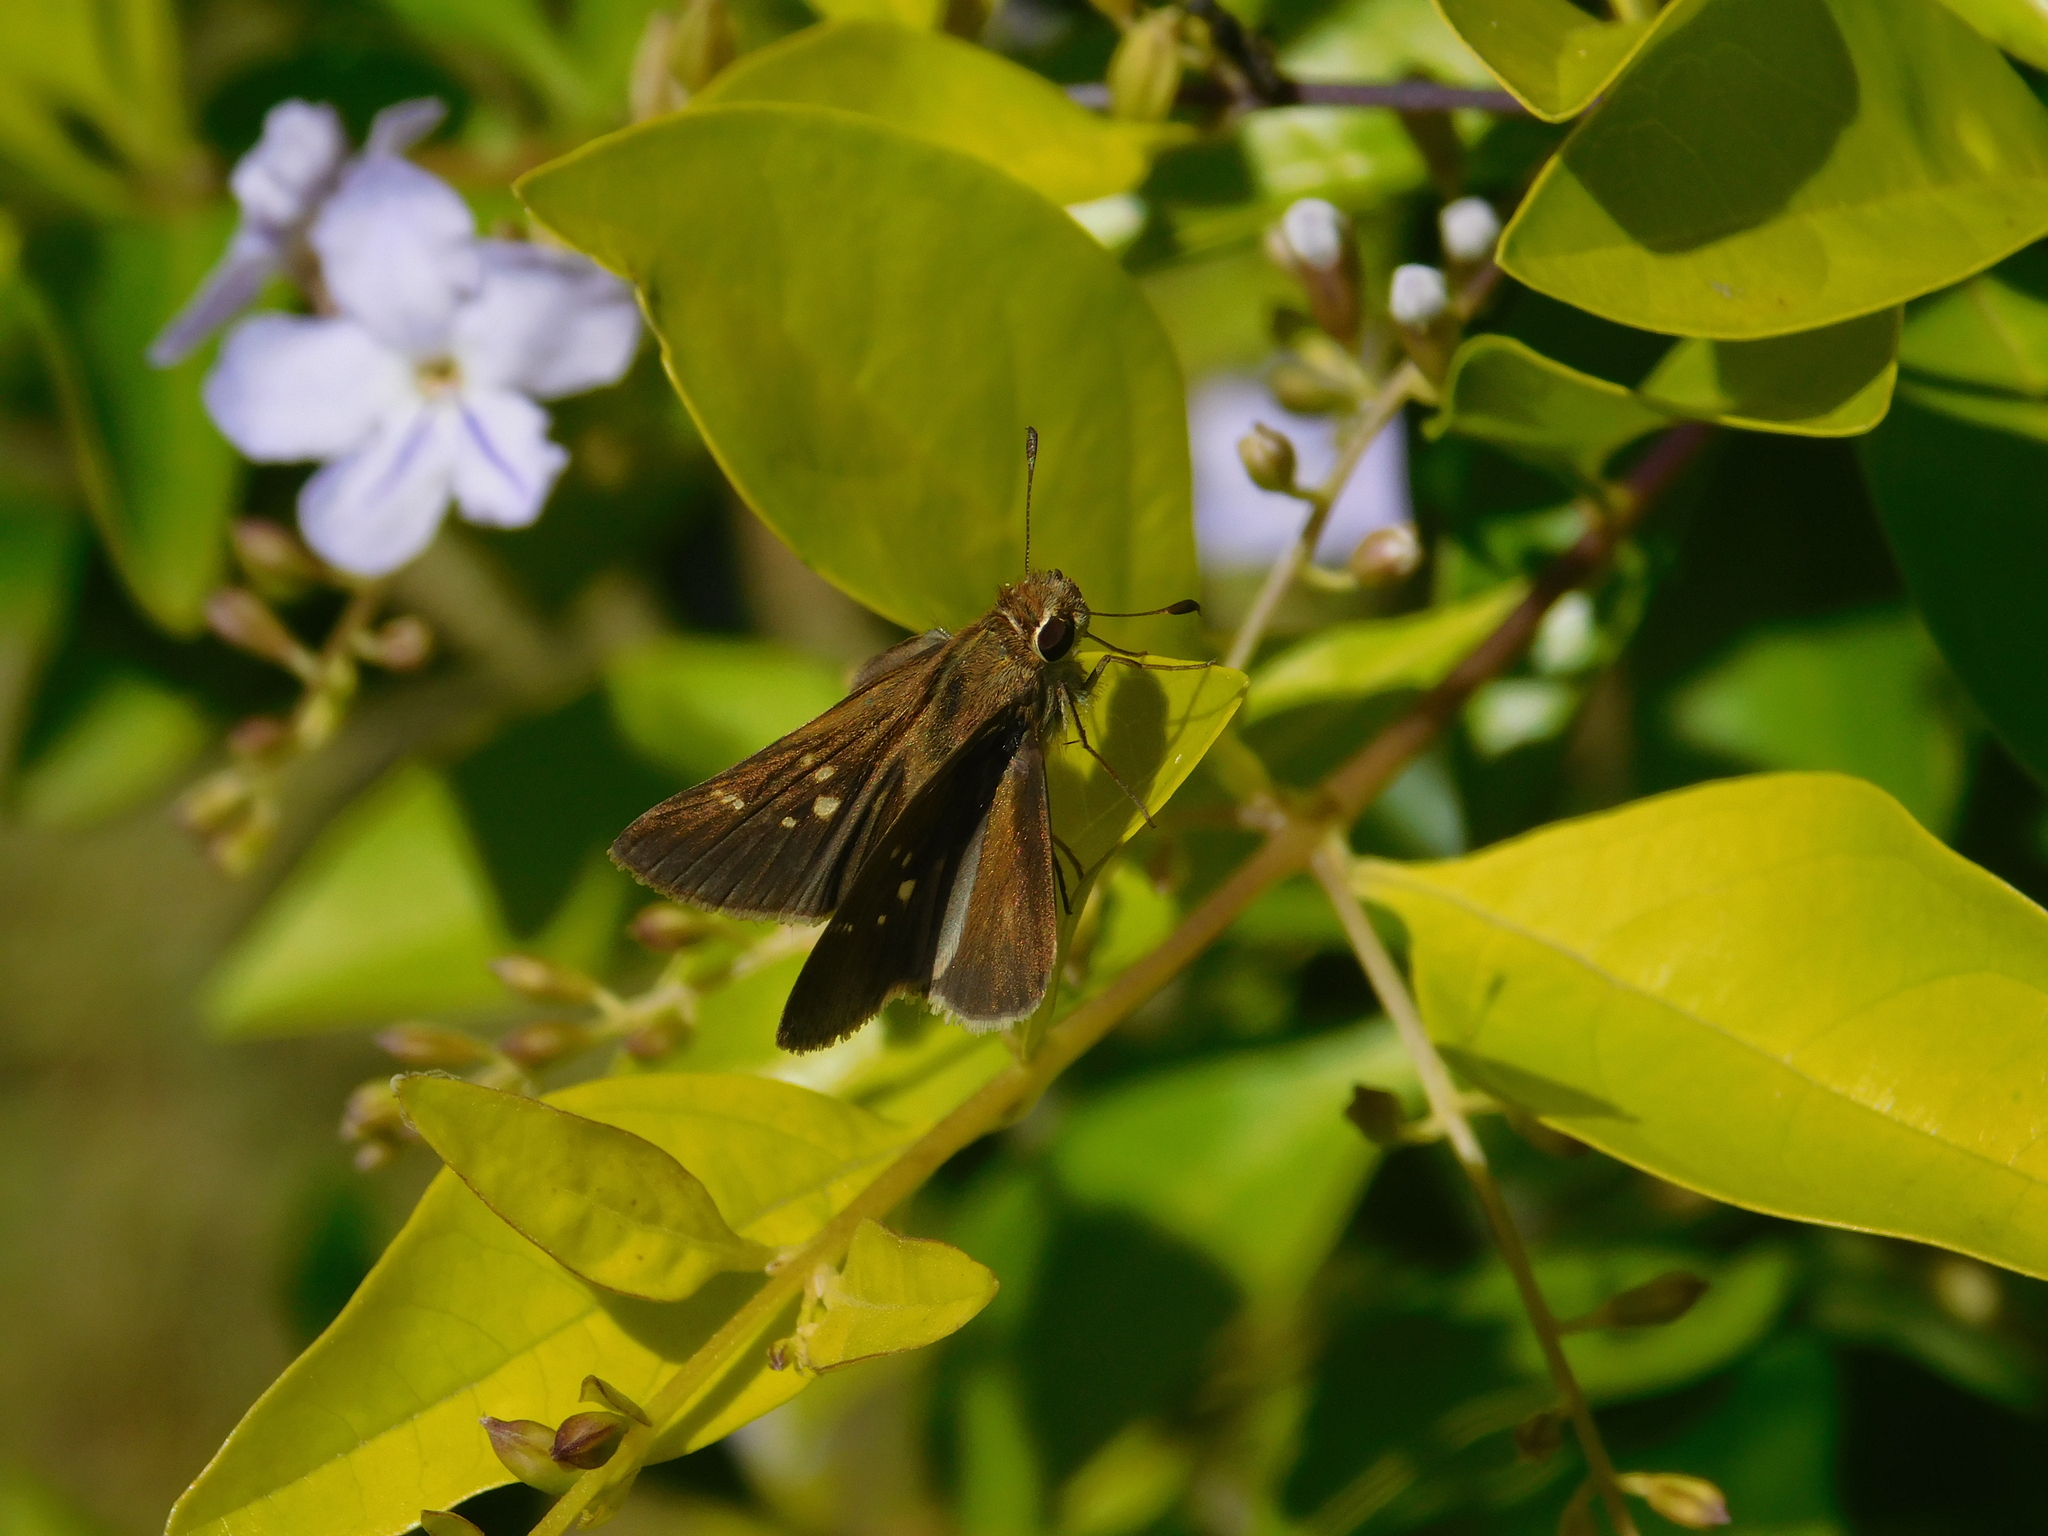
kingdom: Animalia
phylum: Arthropoda
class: Insecta
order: Lepidoptera
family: Hesperiidae
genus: Lerodea
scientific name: Lerodea eufala
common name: Eufala skipper
